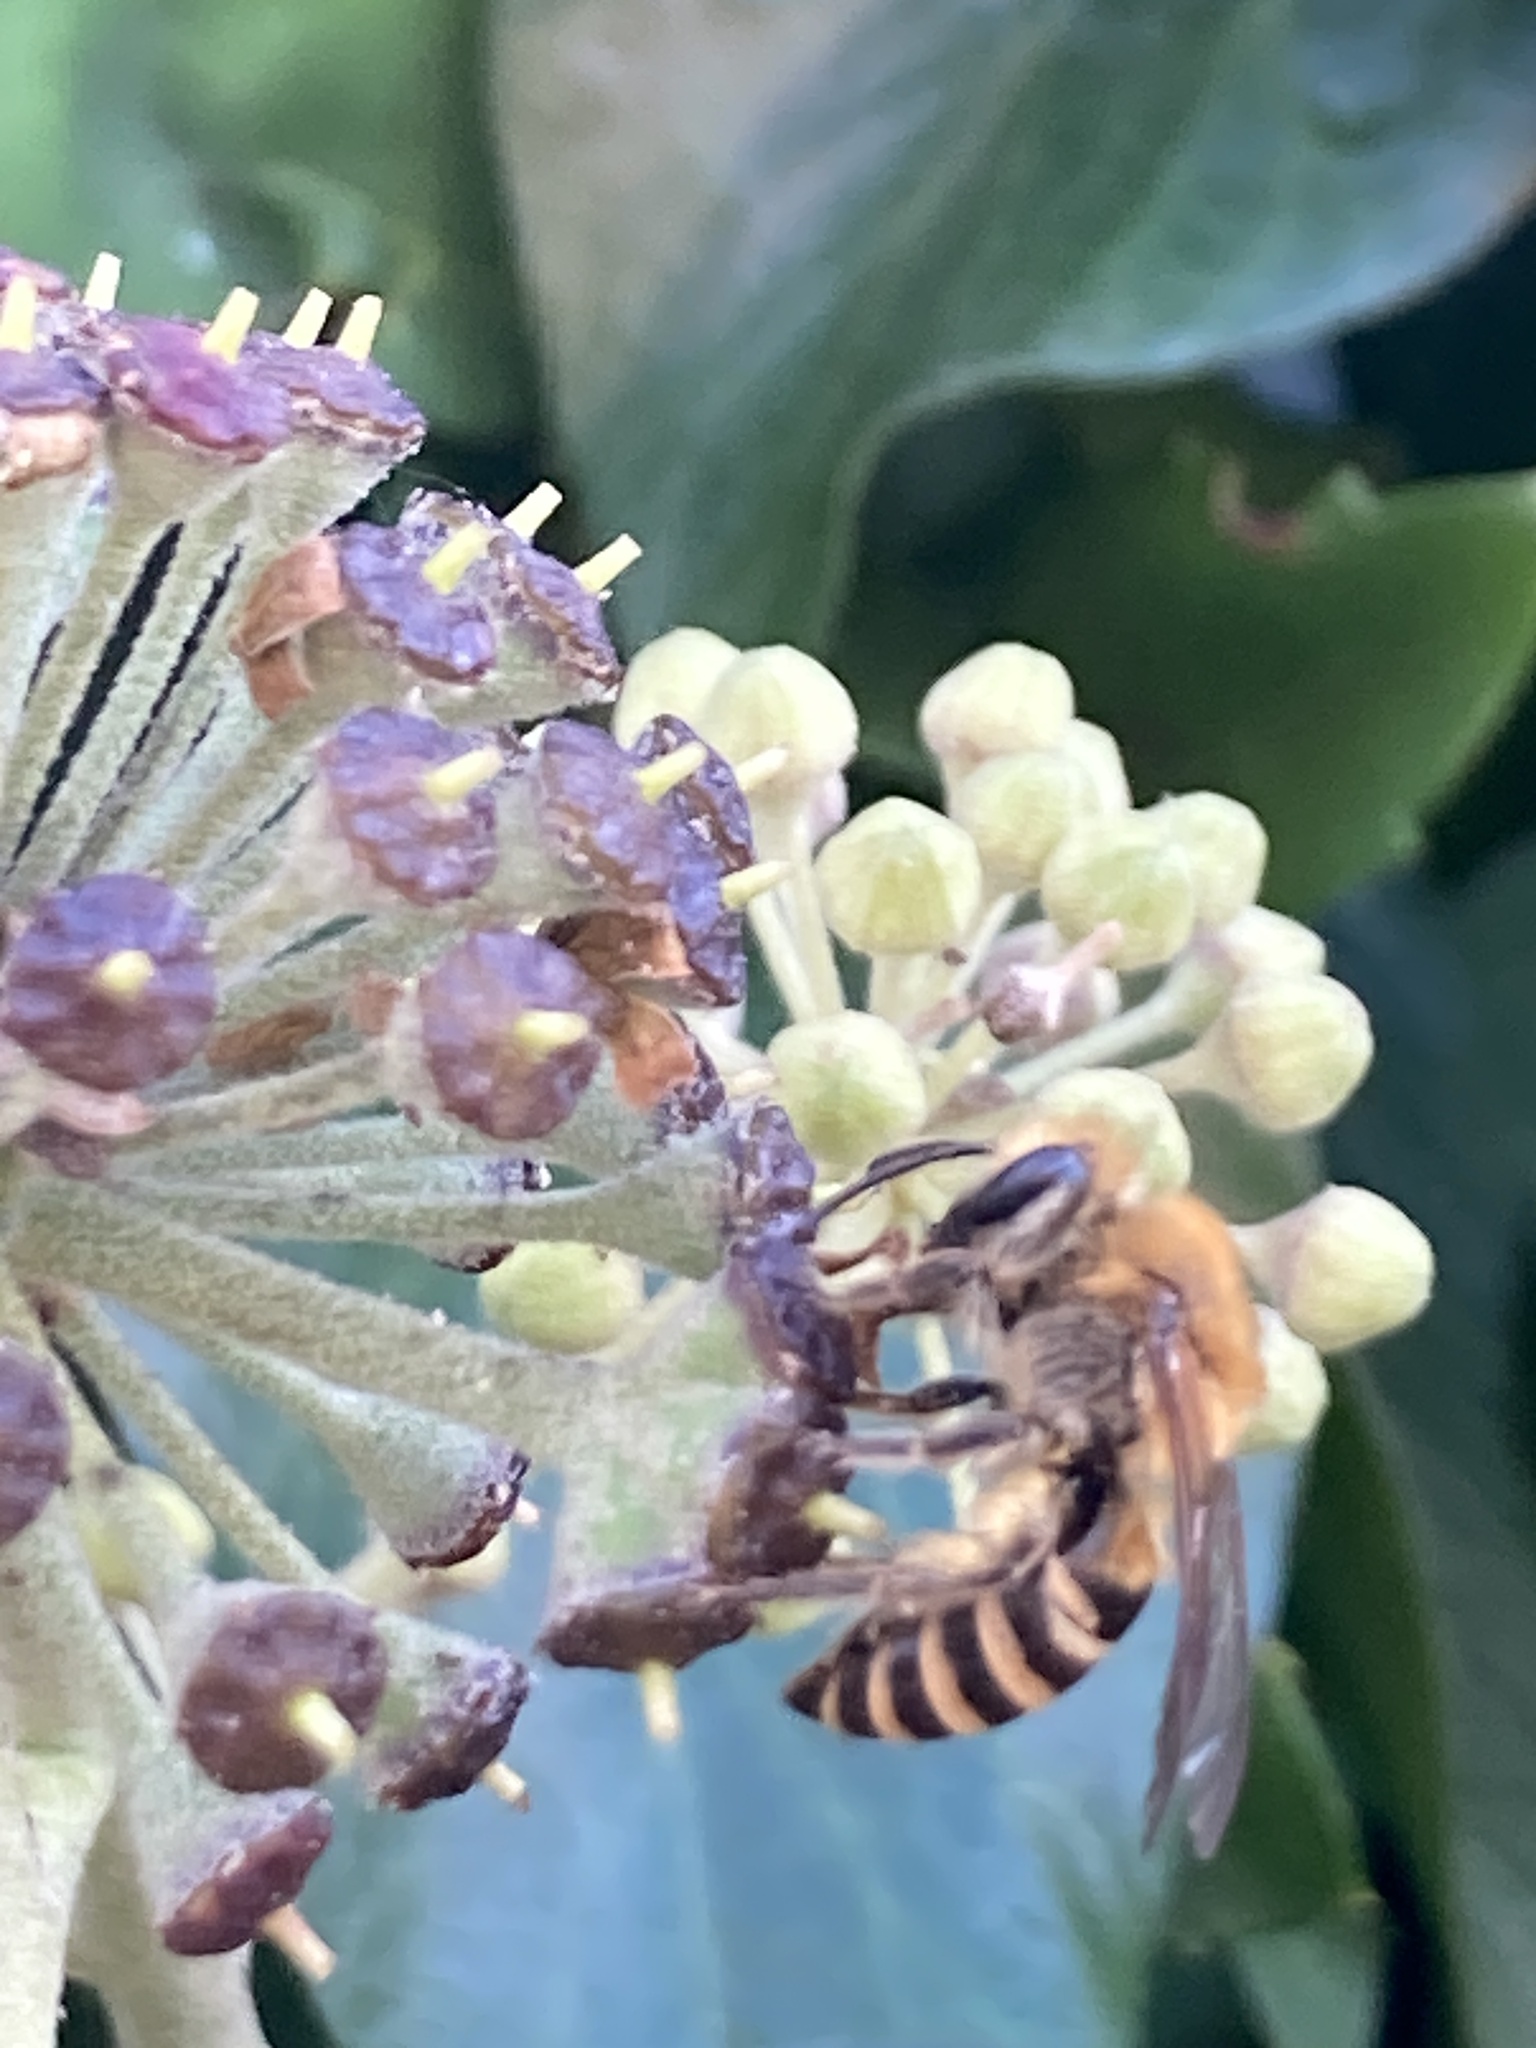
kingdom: Animalia
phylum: Arthropoda
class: Insecta
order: Hymenoptera
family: Colletidae
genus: Colletes
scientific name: Colletes hederae
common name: Ivy bee
